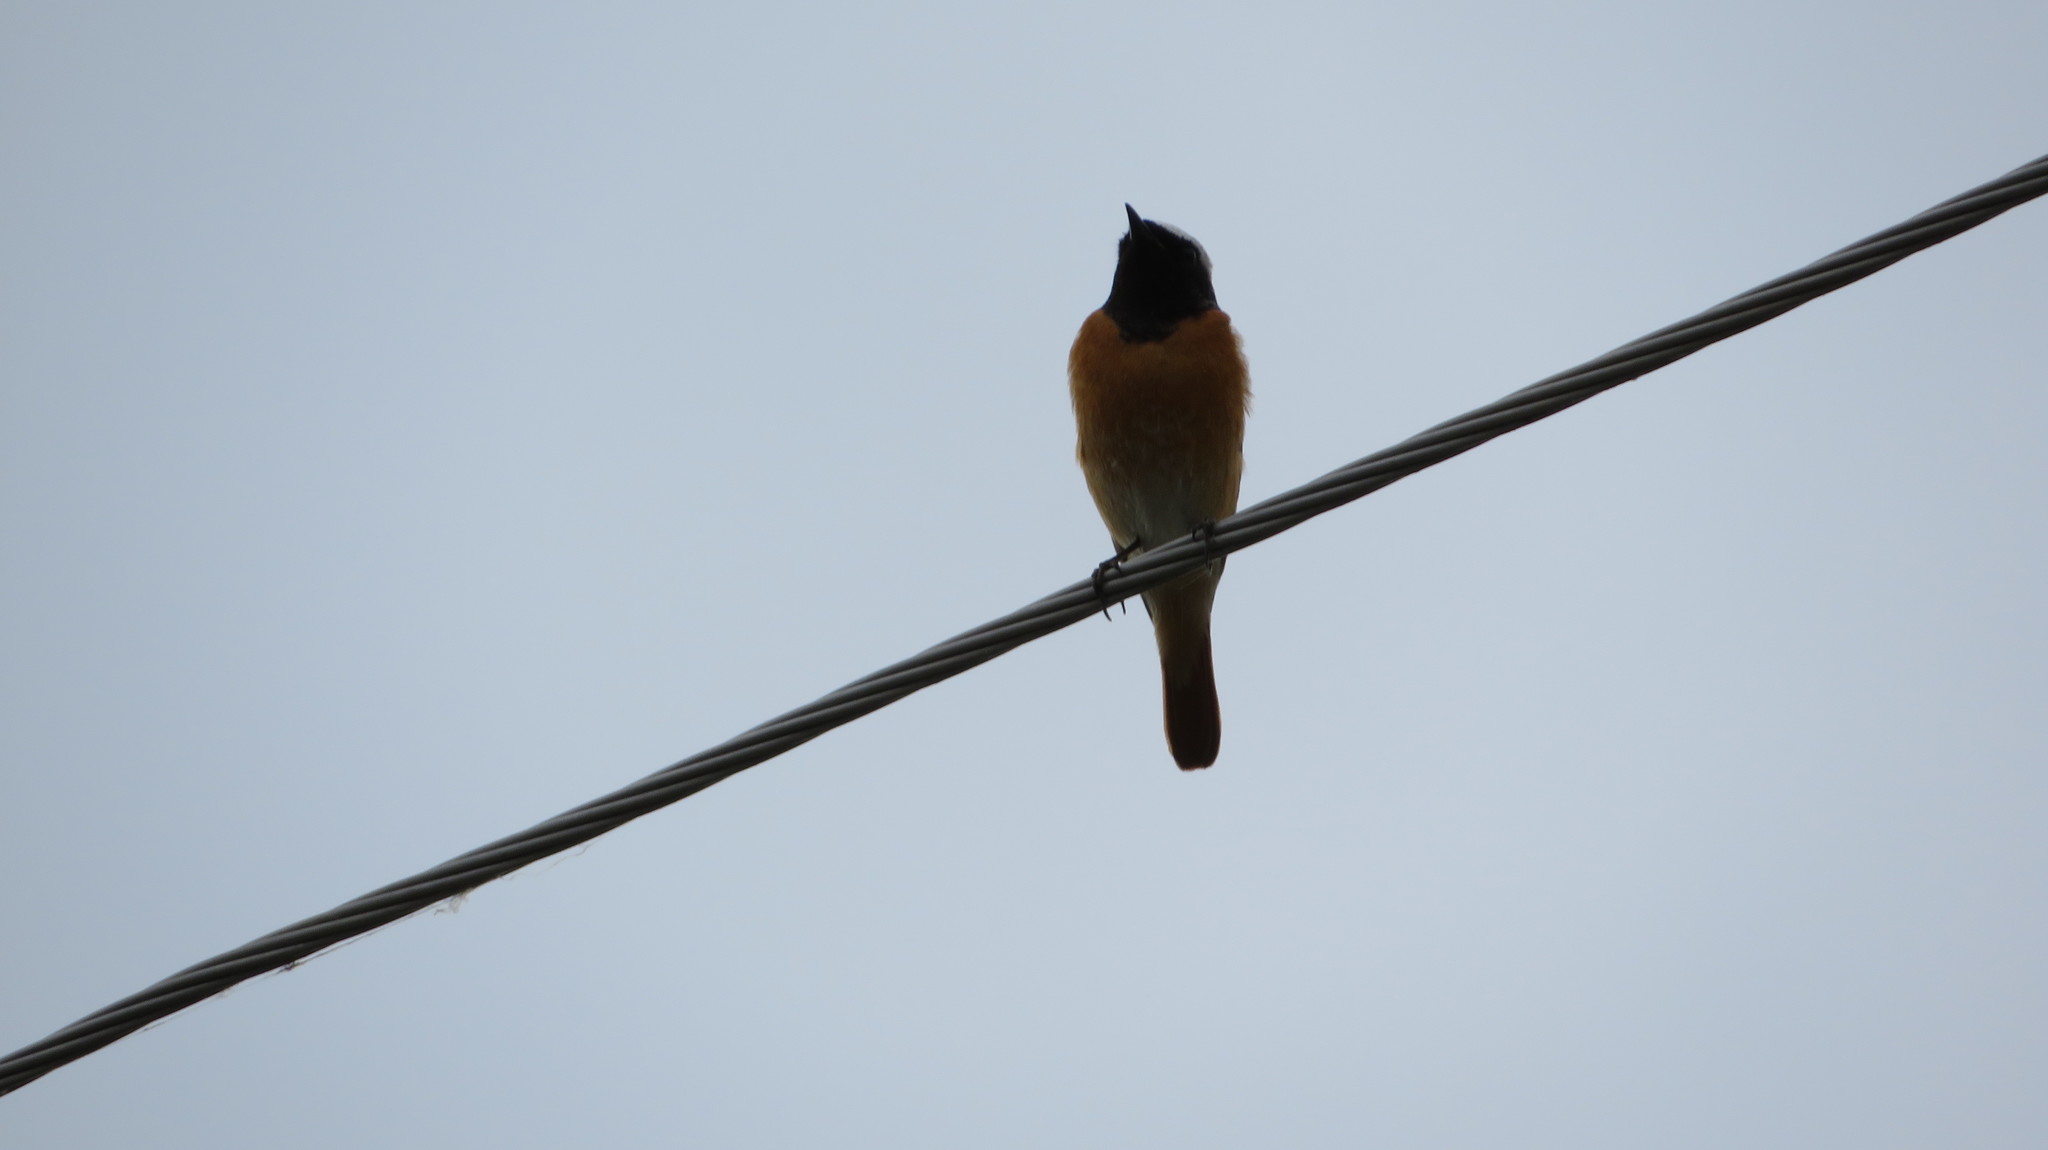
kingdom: Animalia
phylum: Chordata
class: Aves
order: Passeriformes
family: Muscicapidae
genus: Phoenicurus
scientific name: Phoenicurus phoenicurus
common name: Common redstart
